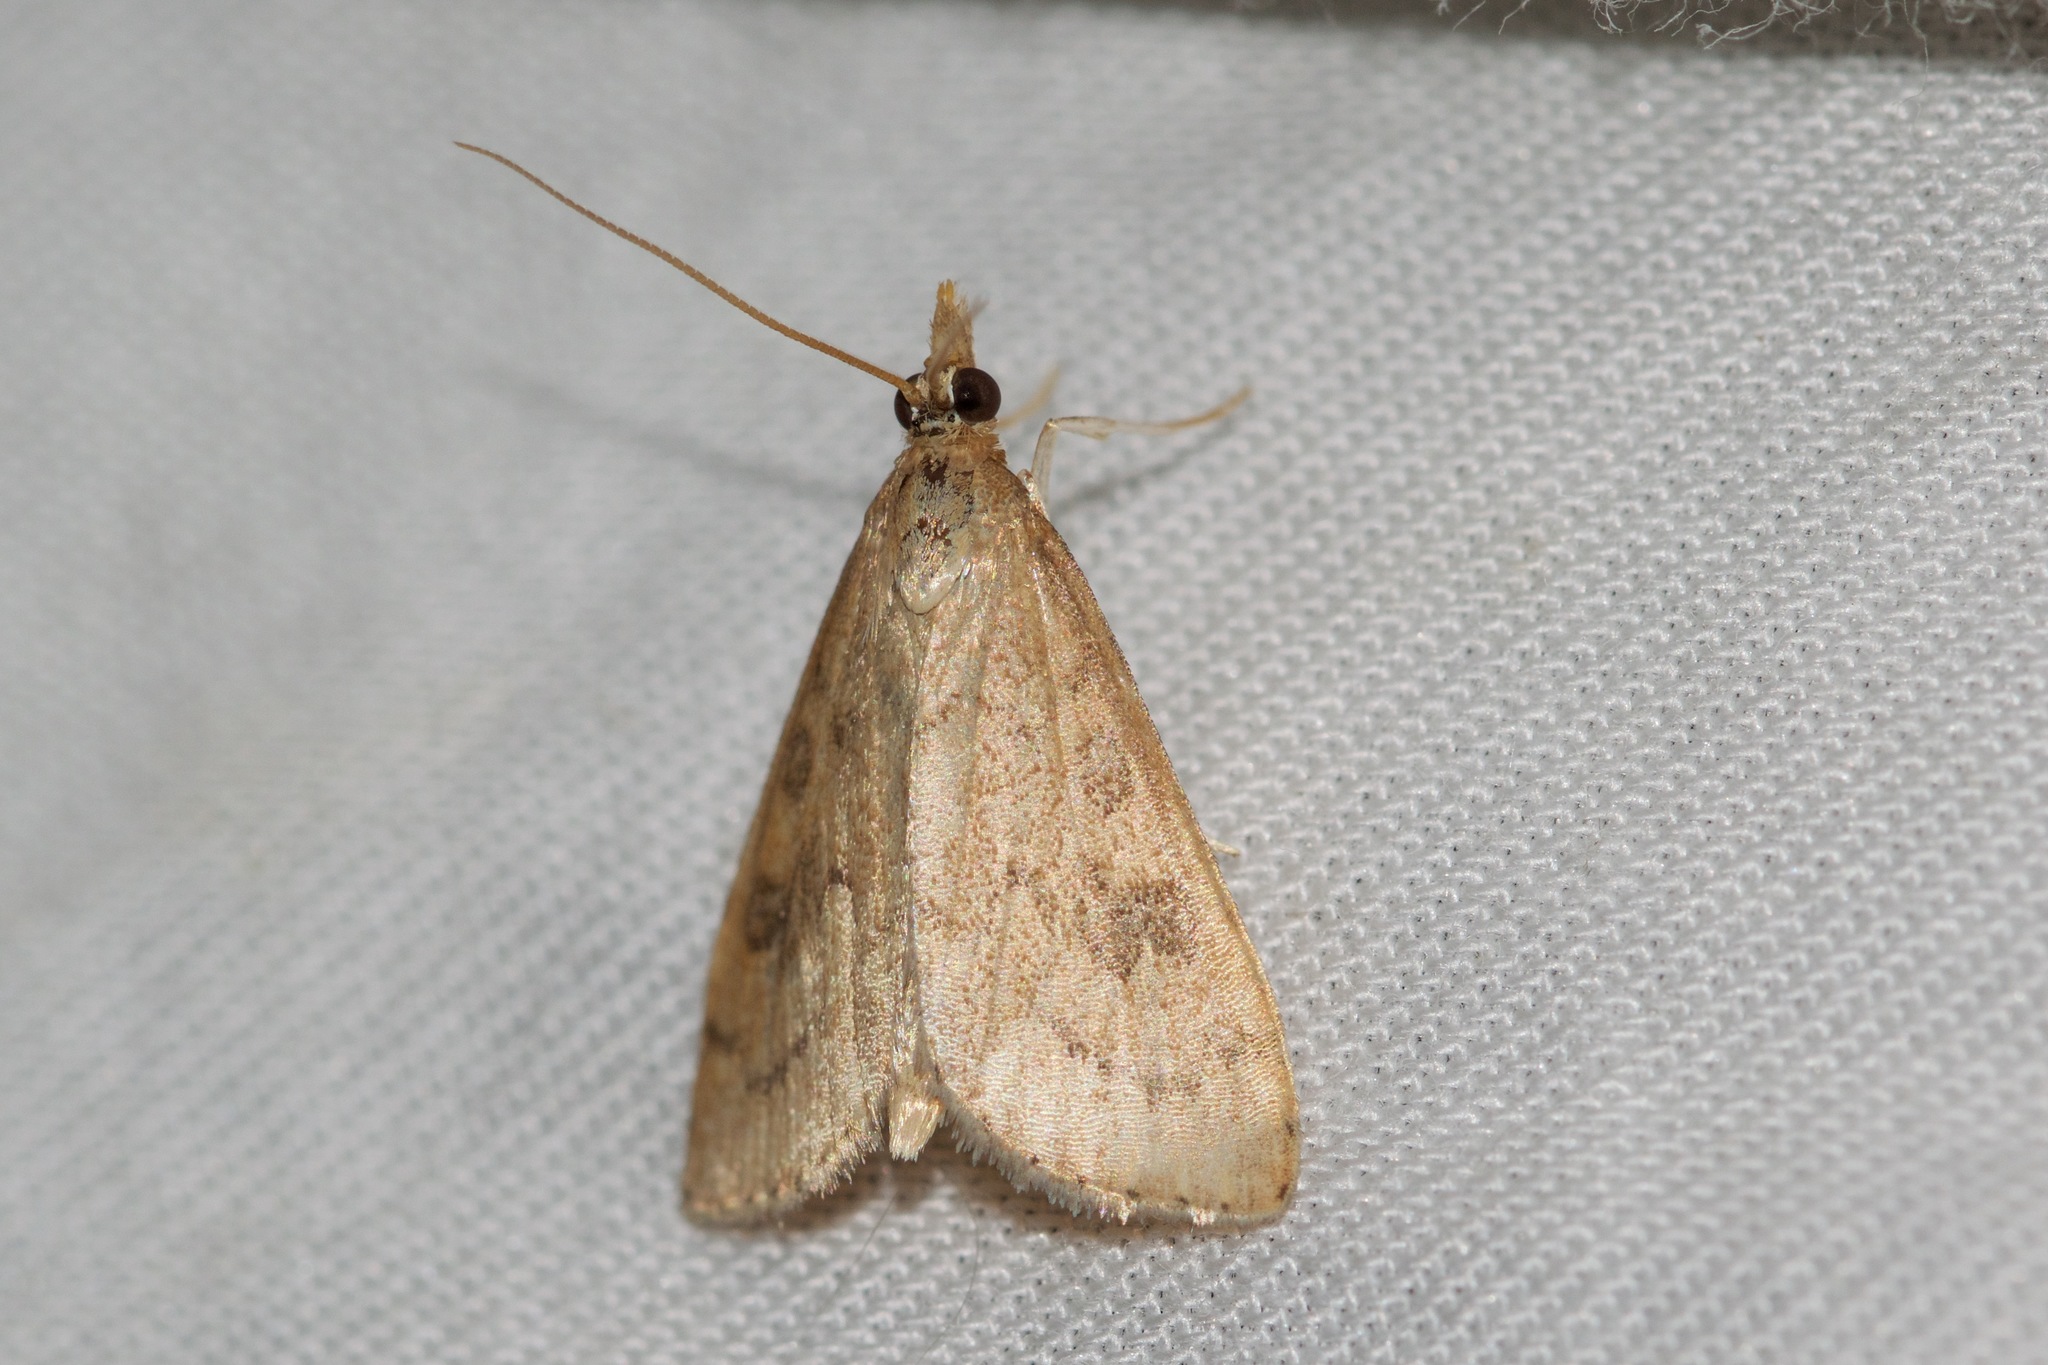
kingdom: Animalia
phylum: Arthropoda
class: Insecta
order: Lepidoptera
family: Crambidae
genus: Udea
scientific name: Udea rubigalis
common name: Celery leaftier moth
